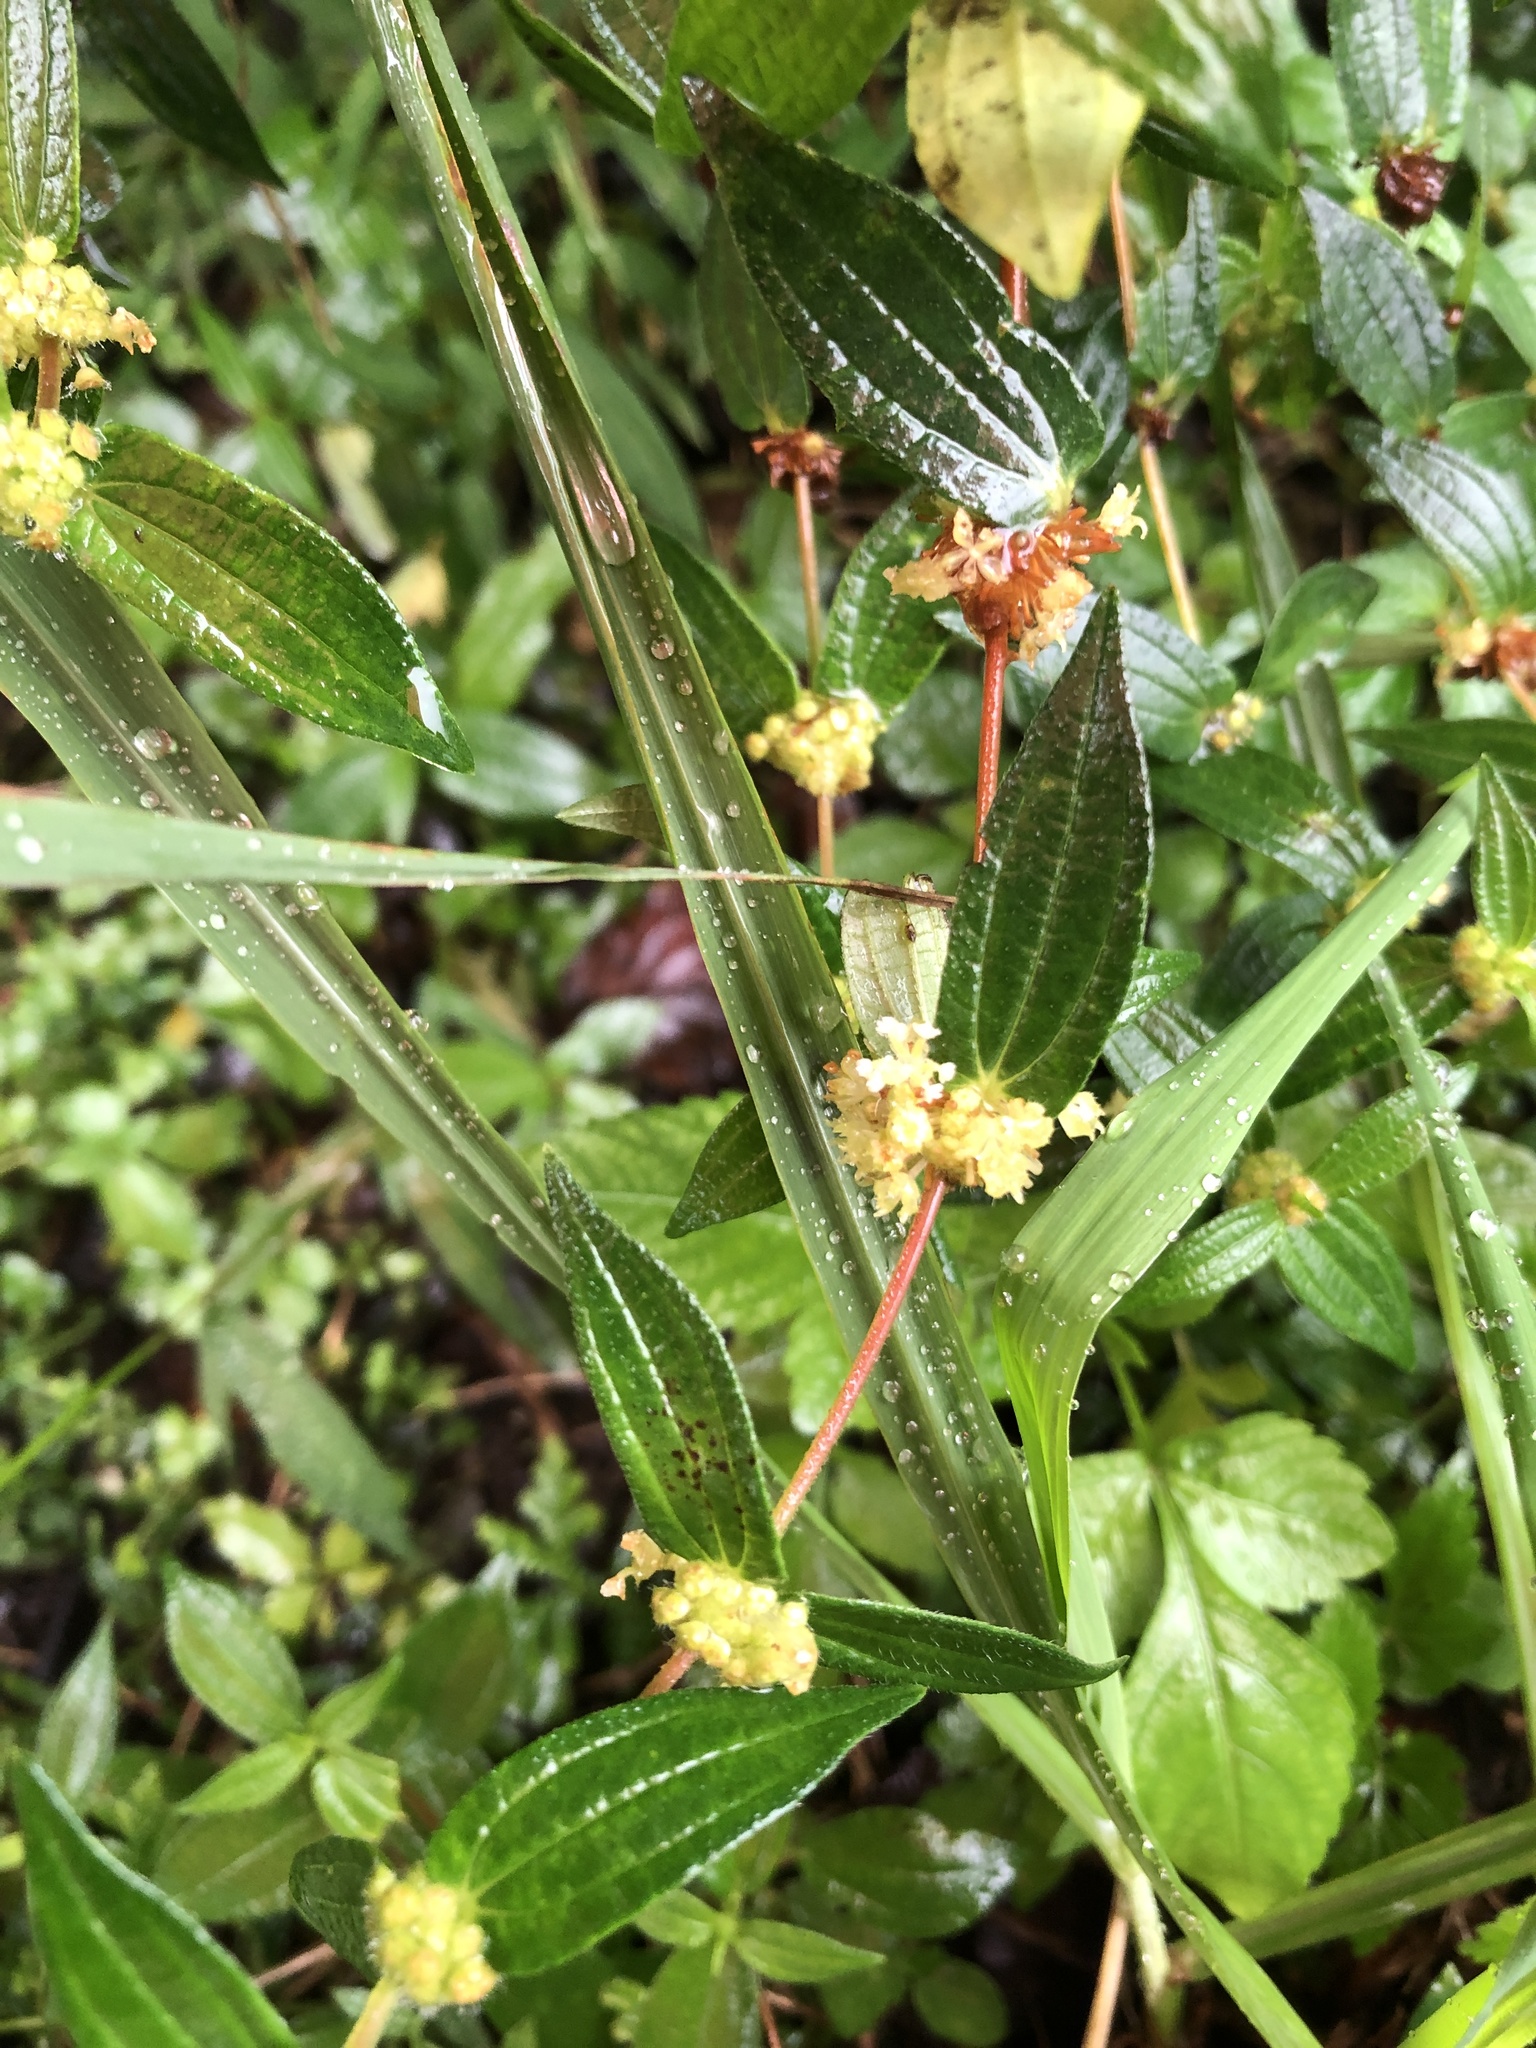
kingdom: Plantae
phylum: Tracheophyta
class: Magnoliopsida
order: Rosales
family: Urticaceae
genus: Gonostegia
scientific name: Gonostegia triandra
